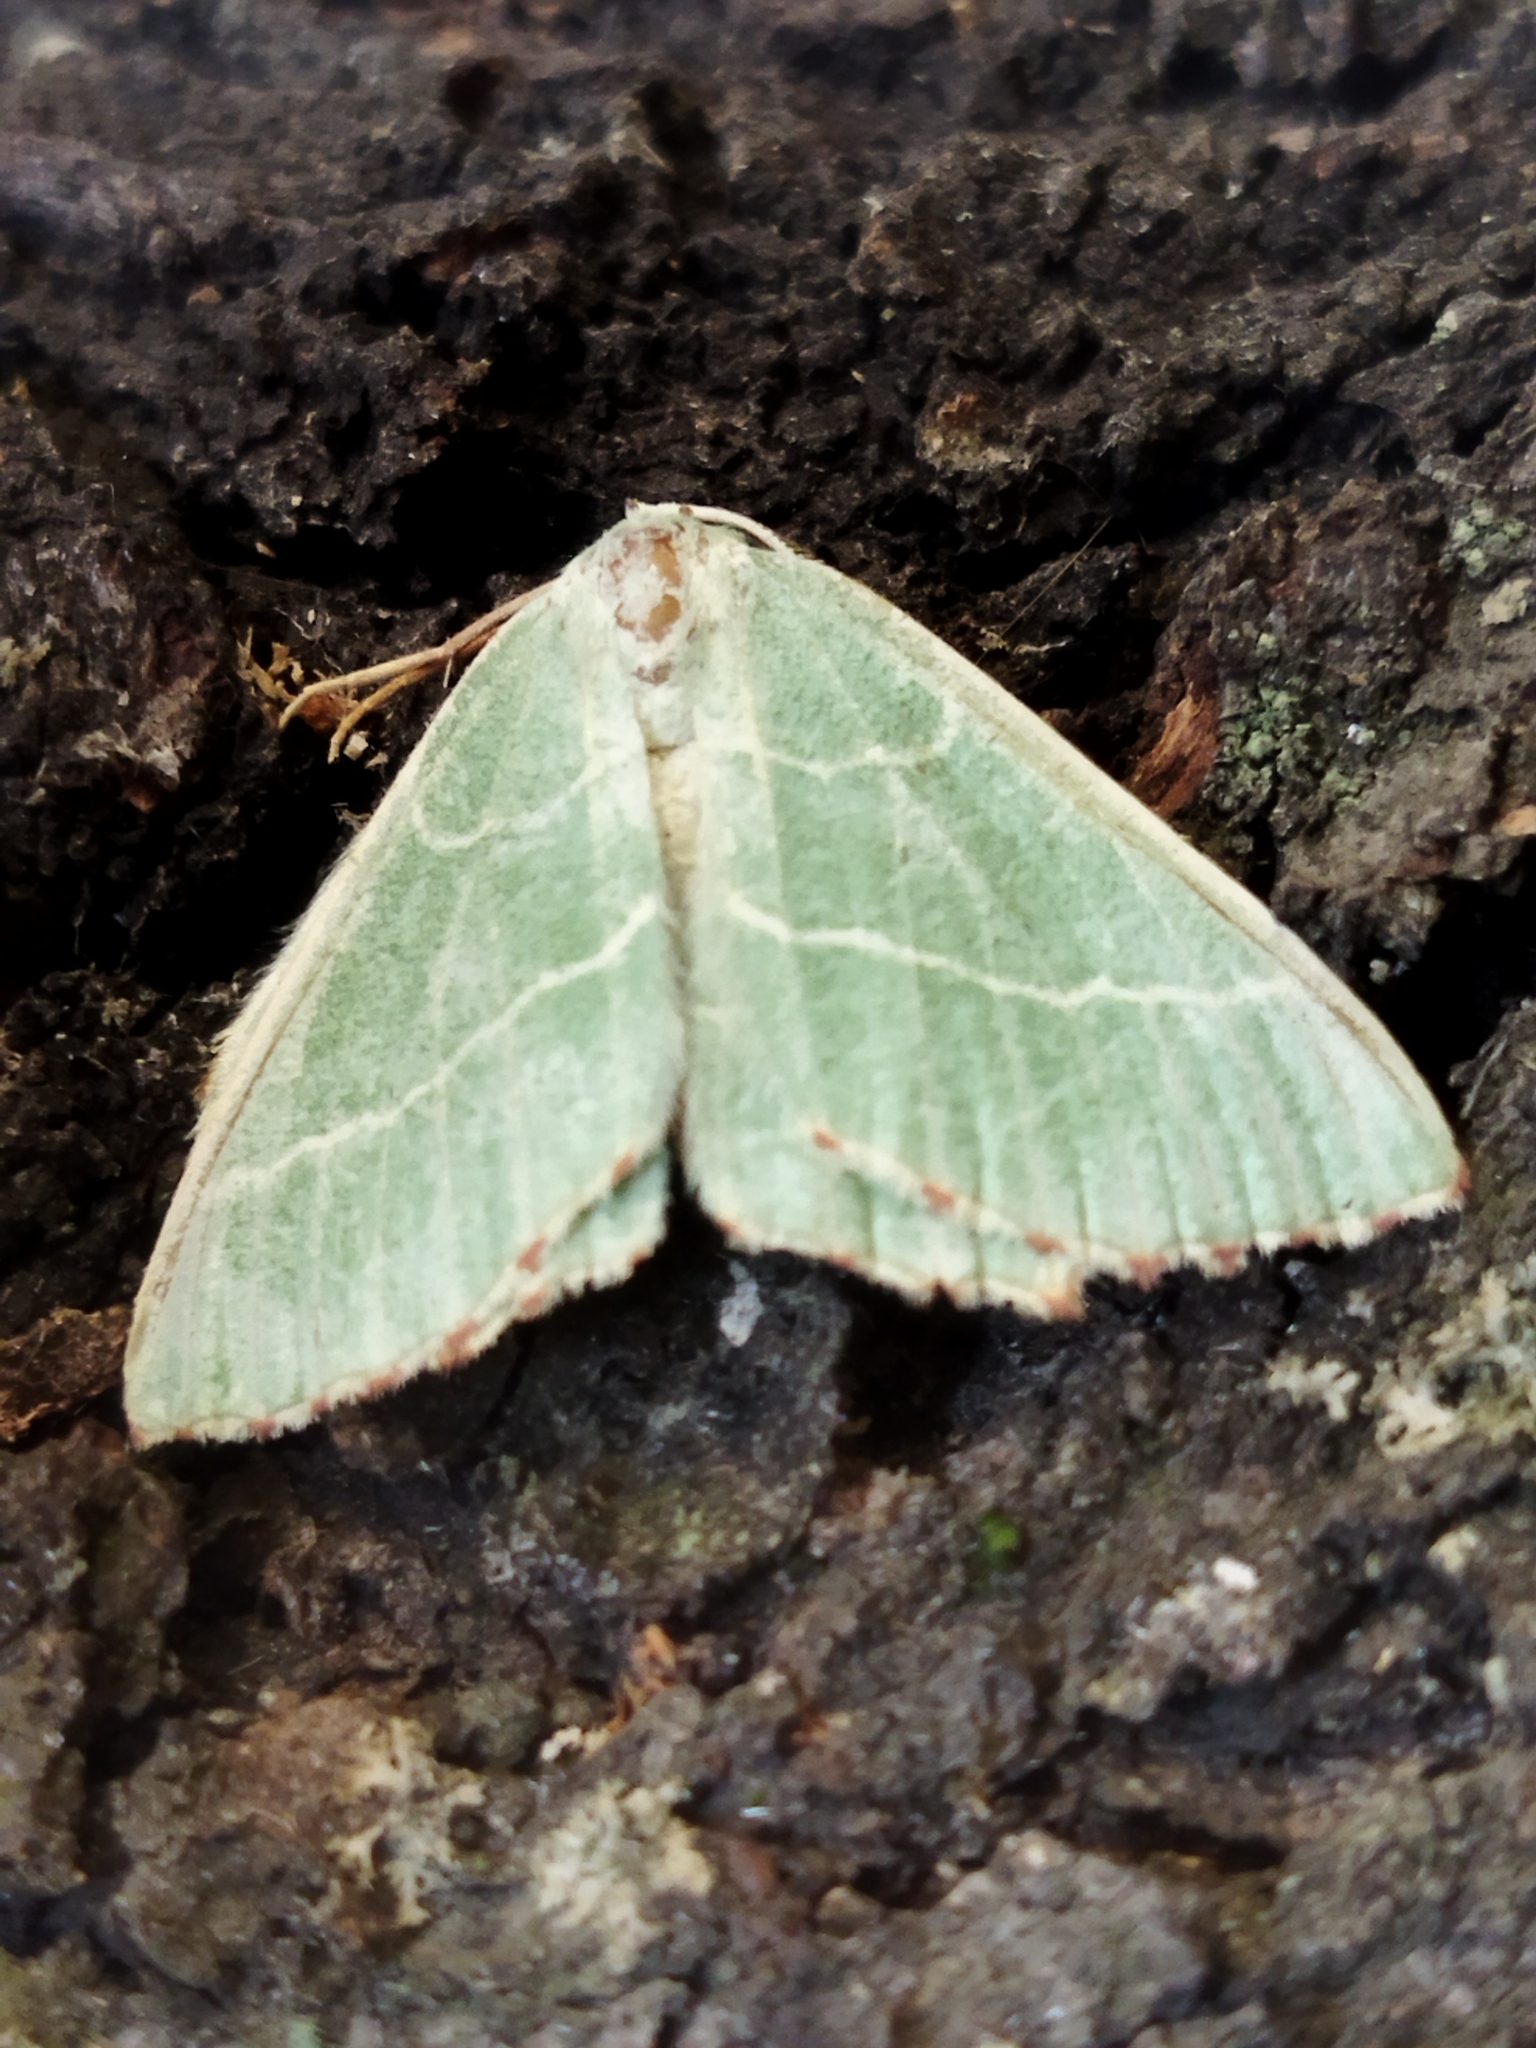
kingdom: Animalia
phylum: Arthropoda
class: Insecta
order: Lepidoptera
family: Geometridae
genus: Thalera
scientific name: Thalera fimbrialis
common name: Sussex emerald
